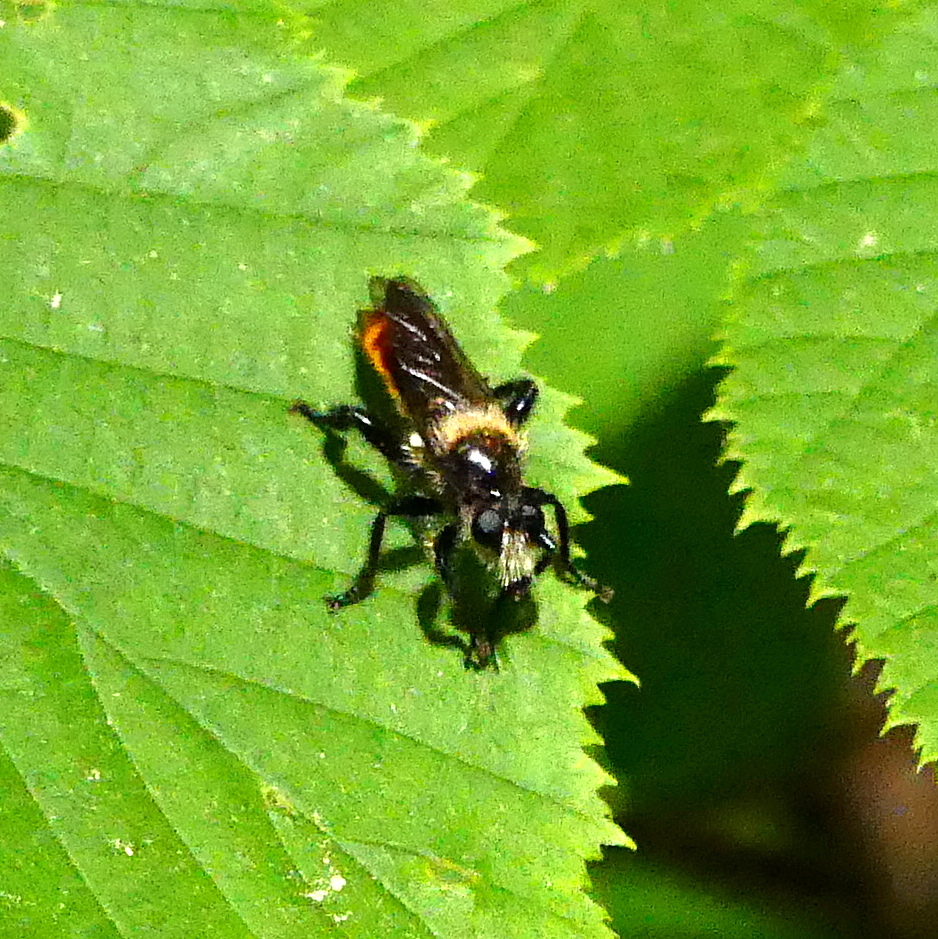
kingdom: Animalia
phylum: Arthropoda
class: Insecta
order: Diptera
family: Asilidae
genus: Laphria
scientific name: Laphria janus
